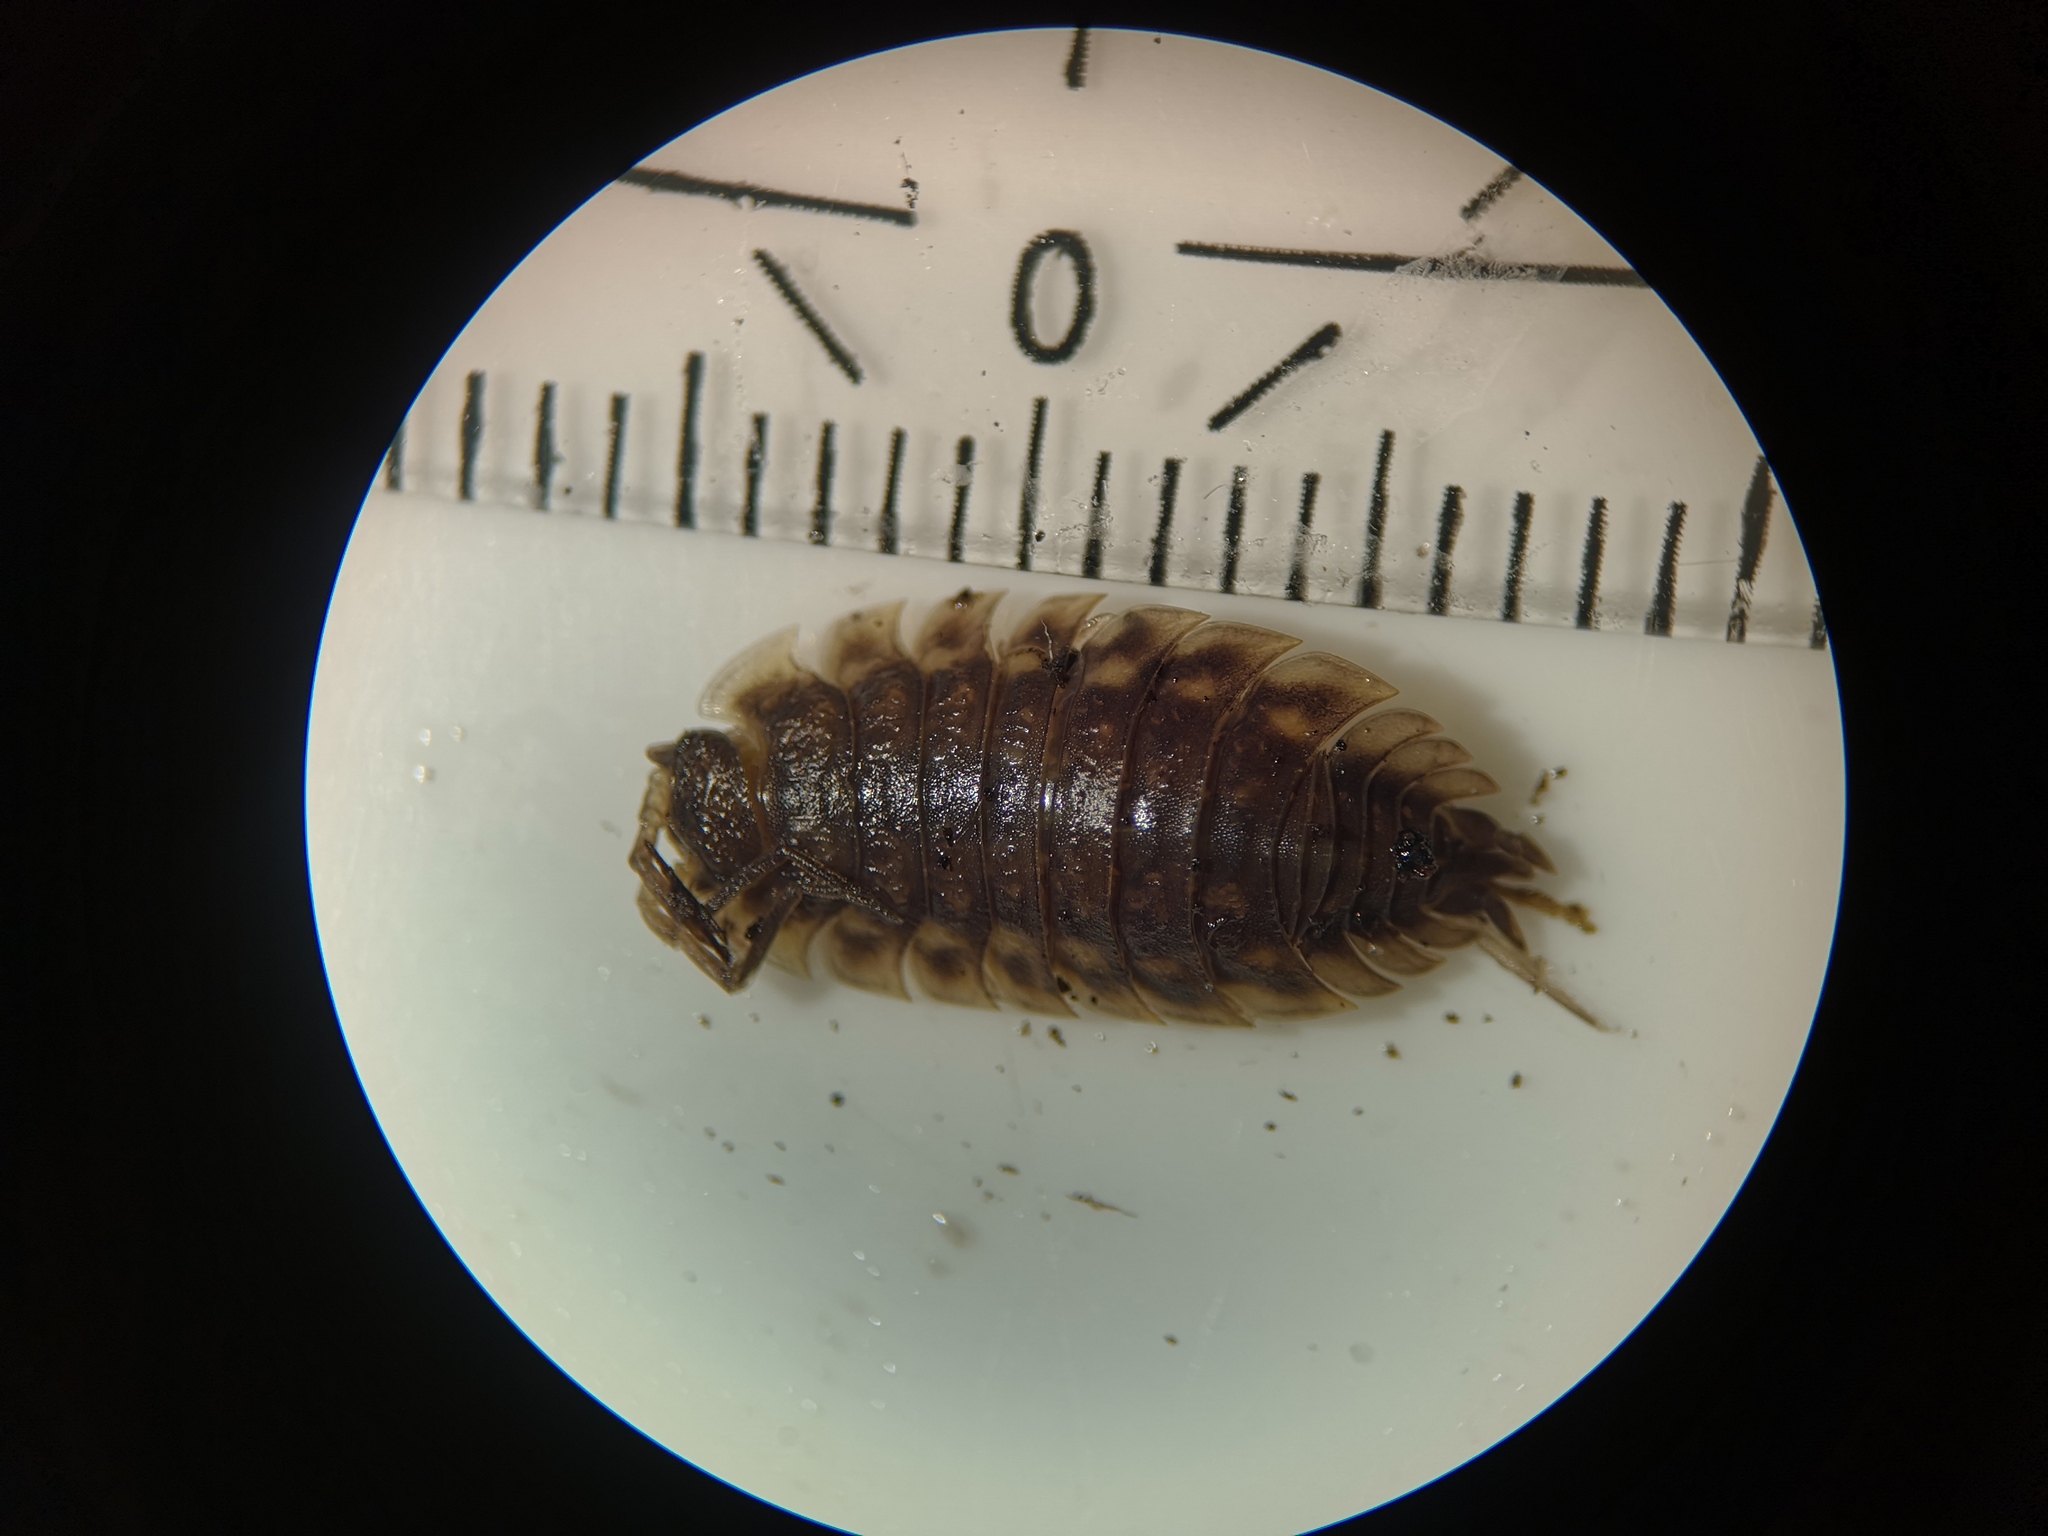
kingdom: Animalia
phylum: Arthropoda
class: Malacostraca
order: Isopoda
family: Oniscidae
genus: Oniscus
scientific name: Oniscus asellus
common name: Common shiny woodlouse
